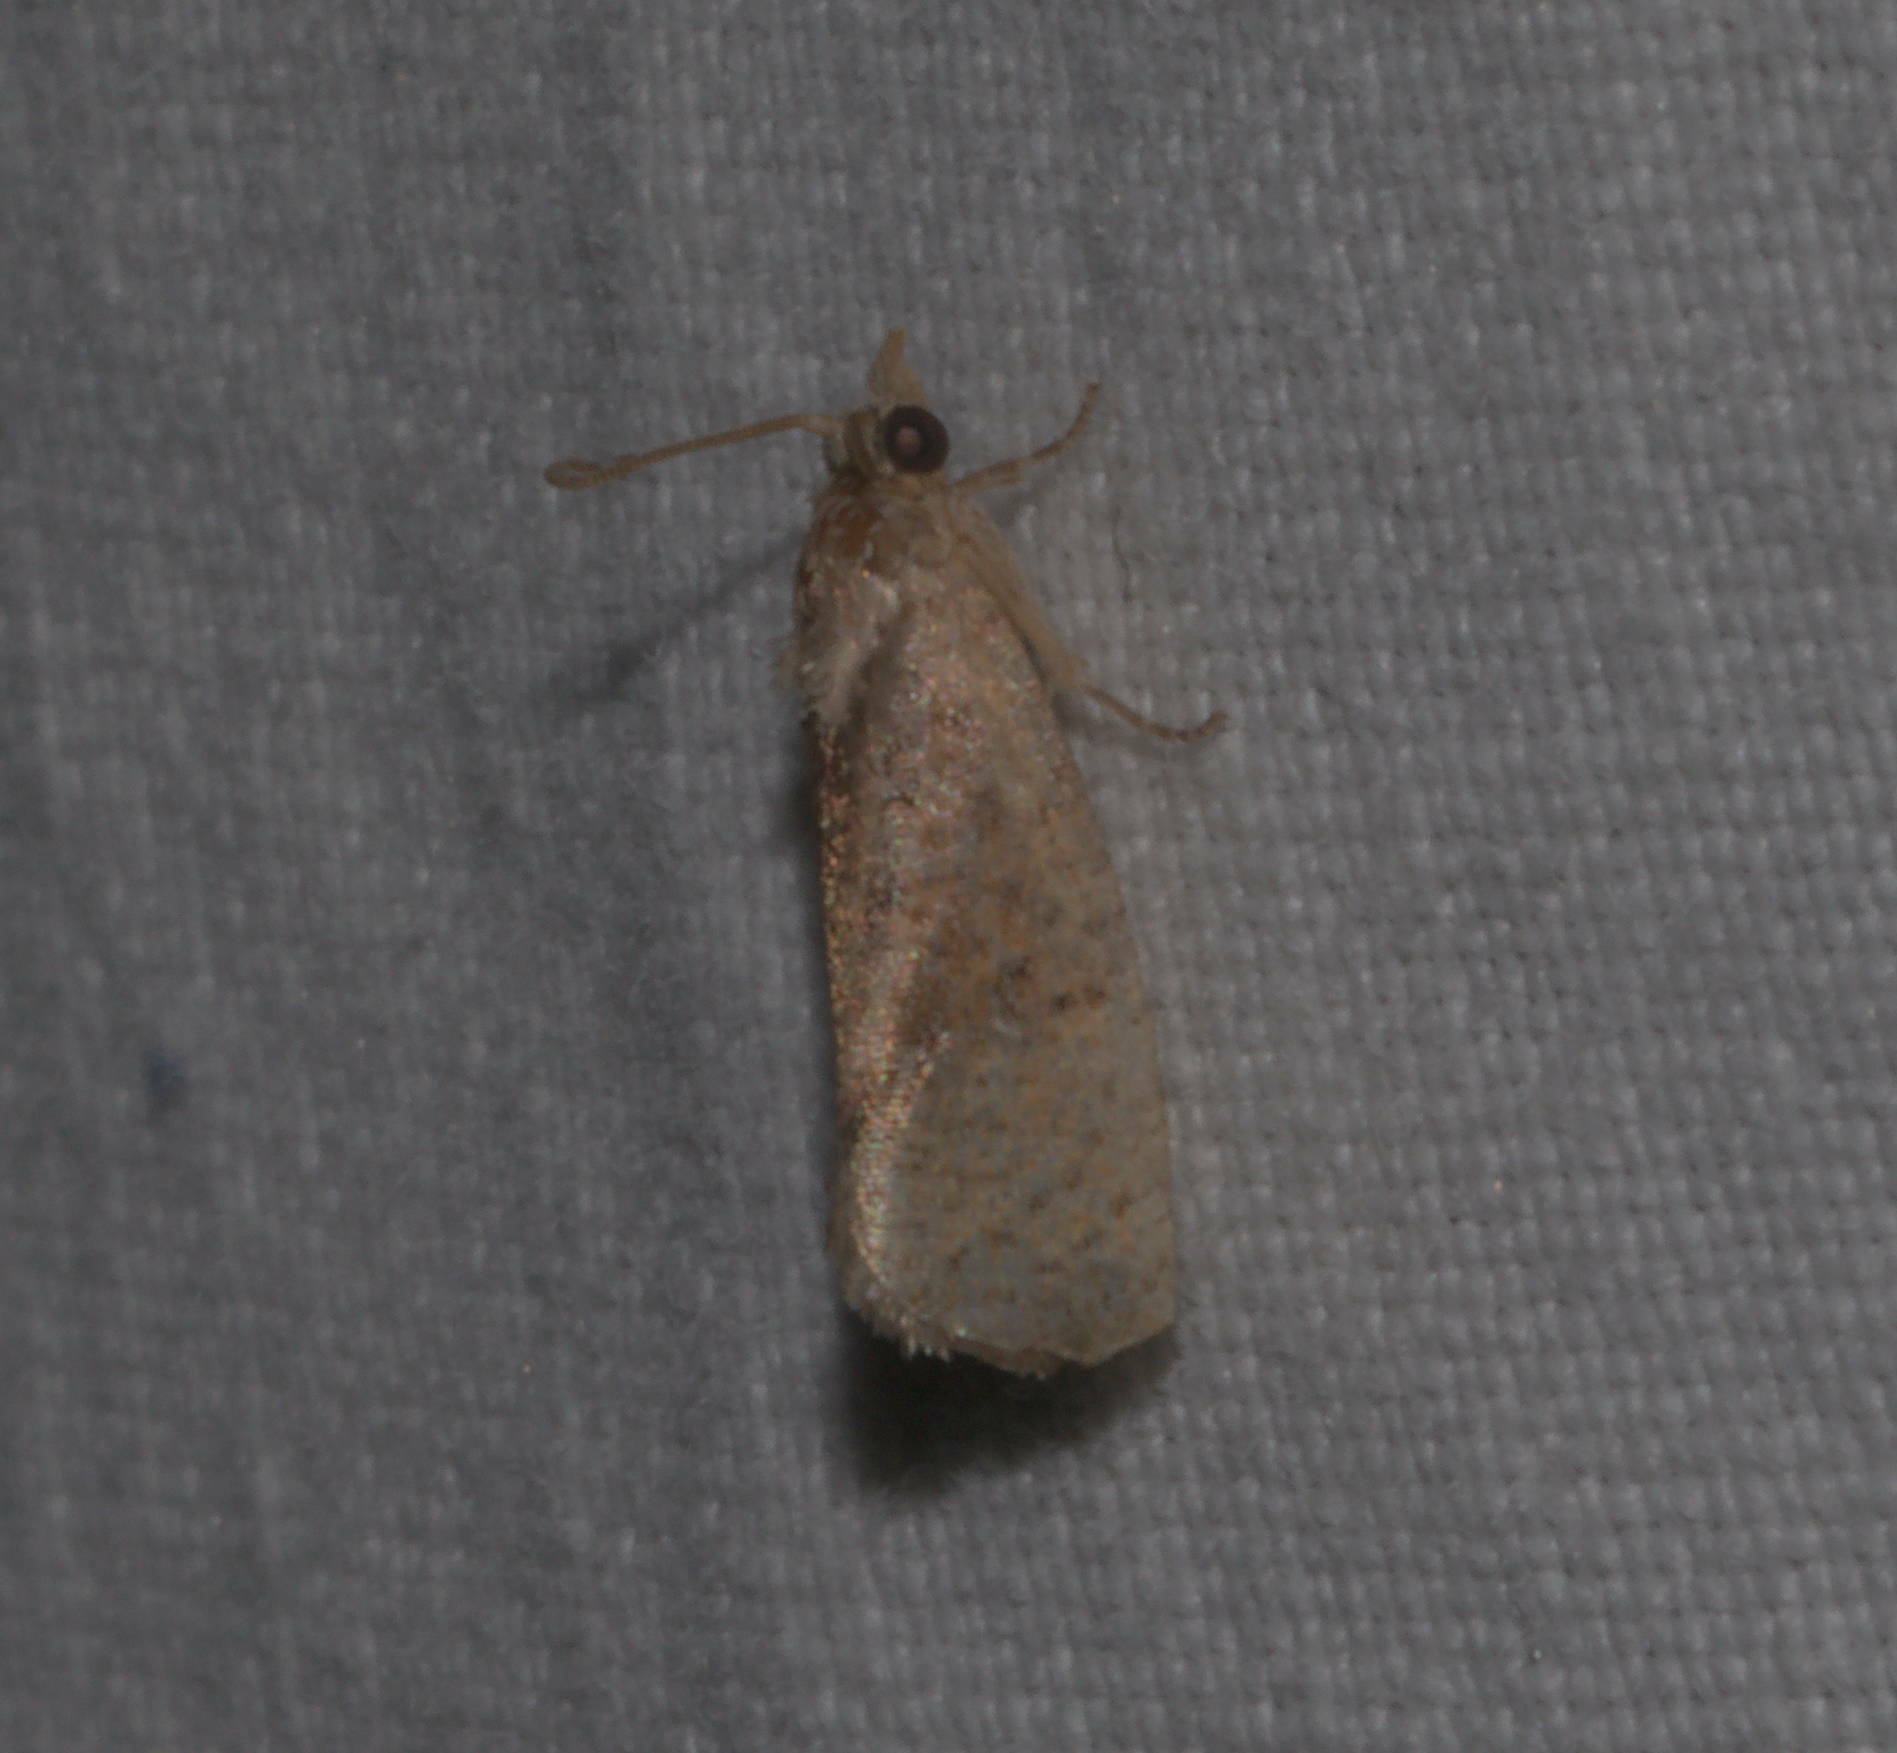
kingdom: Animalia
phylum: Arthropoda
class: Insecta
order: Lepidoptera
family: Tortricidae
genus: Cryptophlebia
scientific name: Cryptophlebia illepida
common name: Moth
